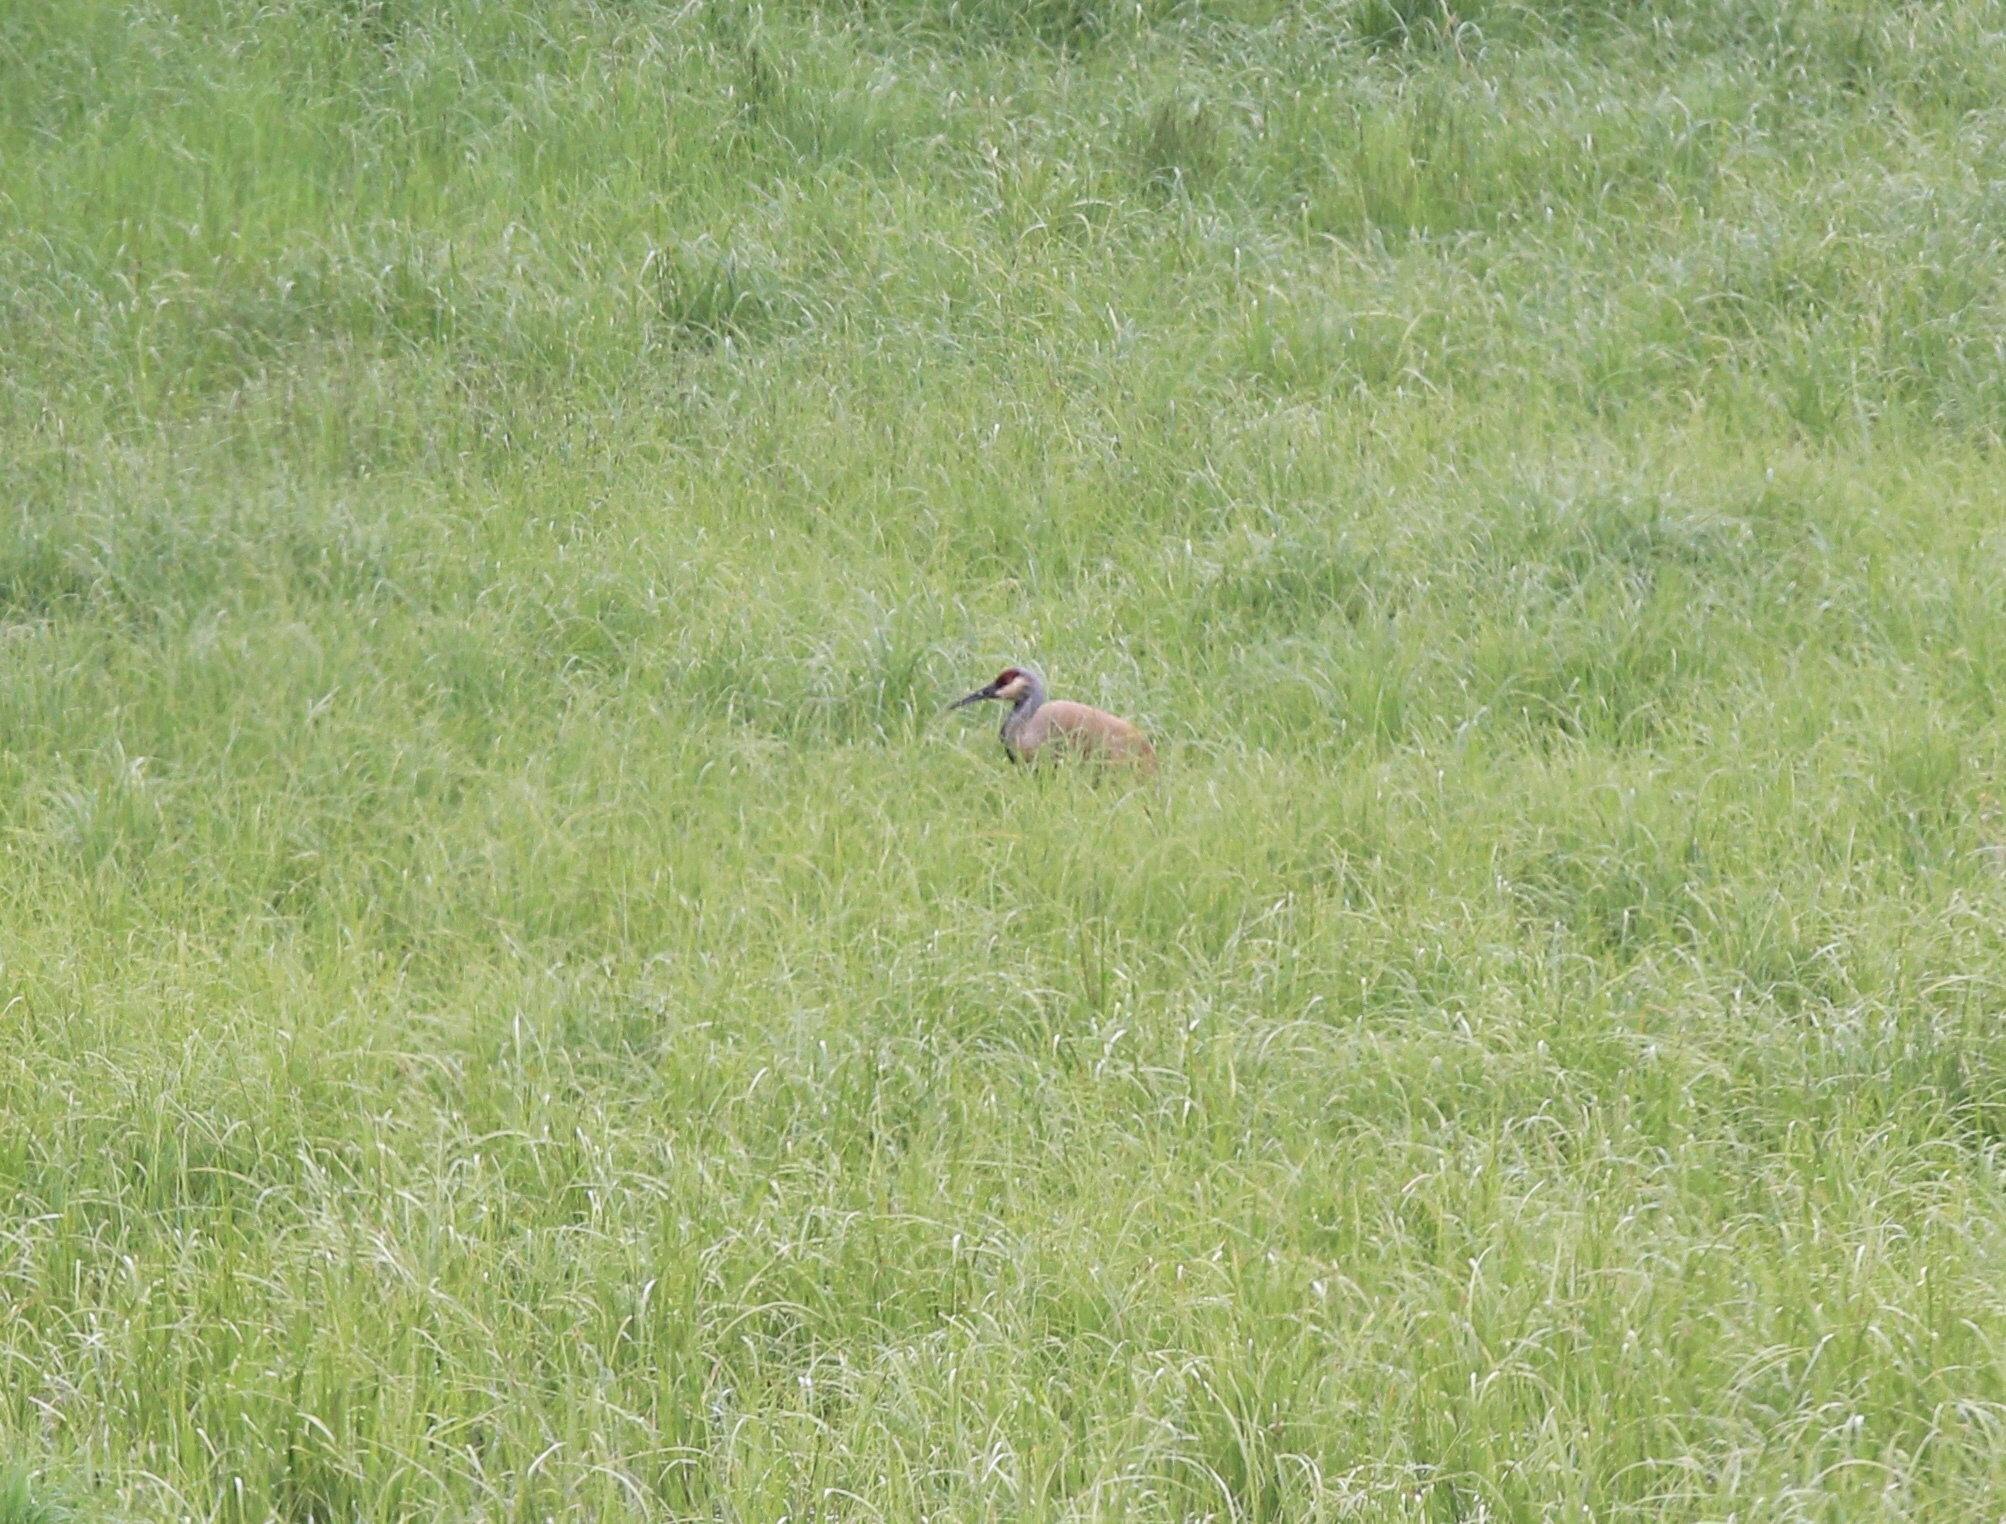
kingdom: Animalia
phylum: Chordata
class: Aves
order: Gruiformes
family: Gruidae
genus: Grus
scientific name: Grus canadensis
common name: Sandhill crane
